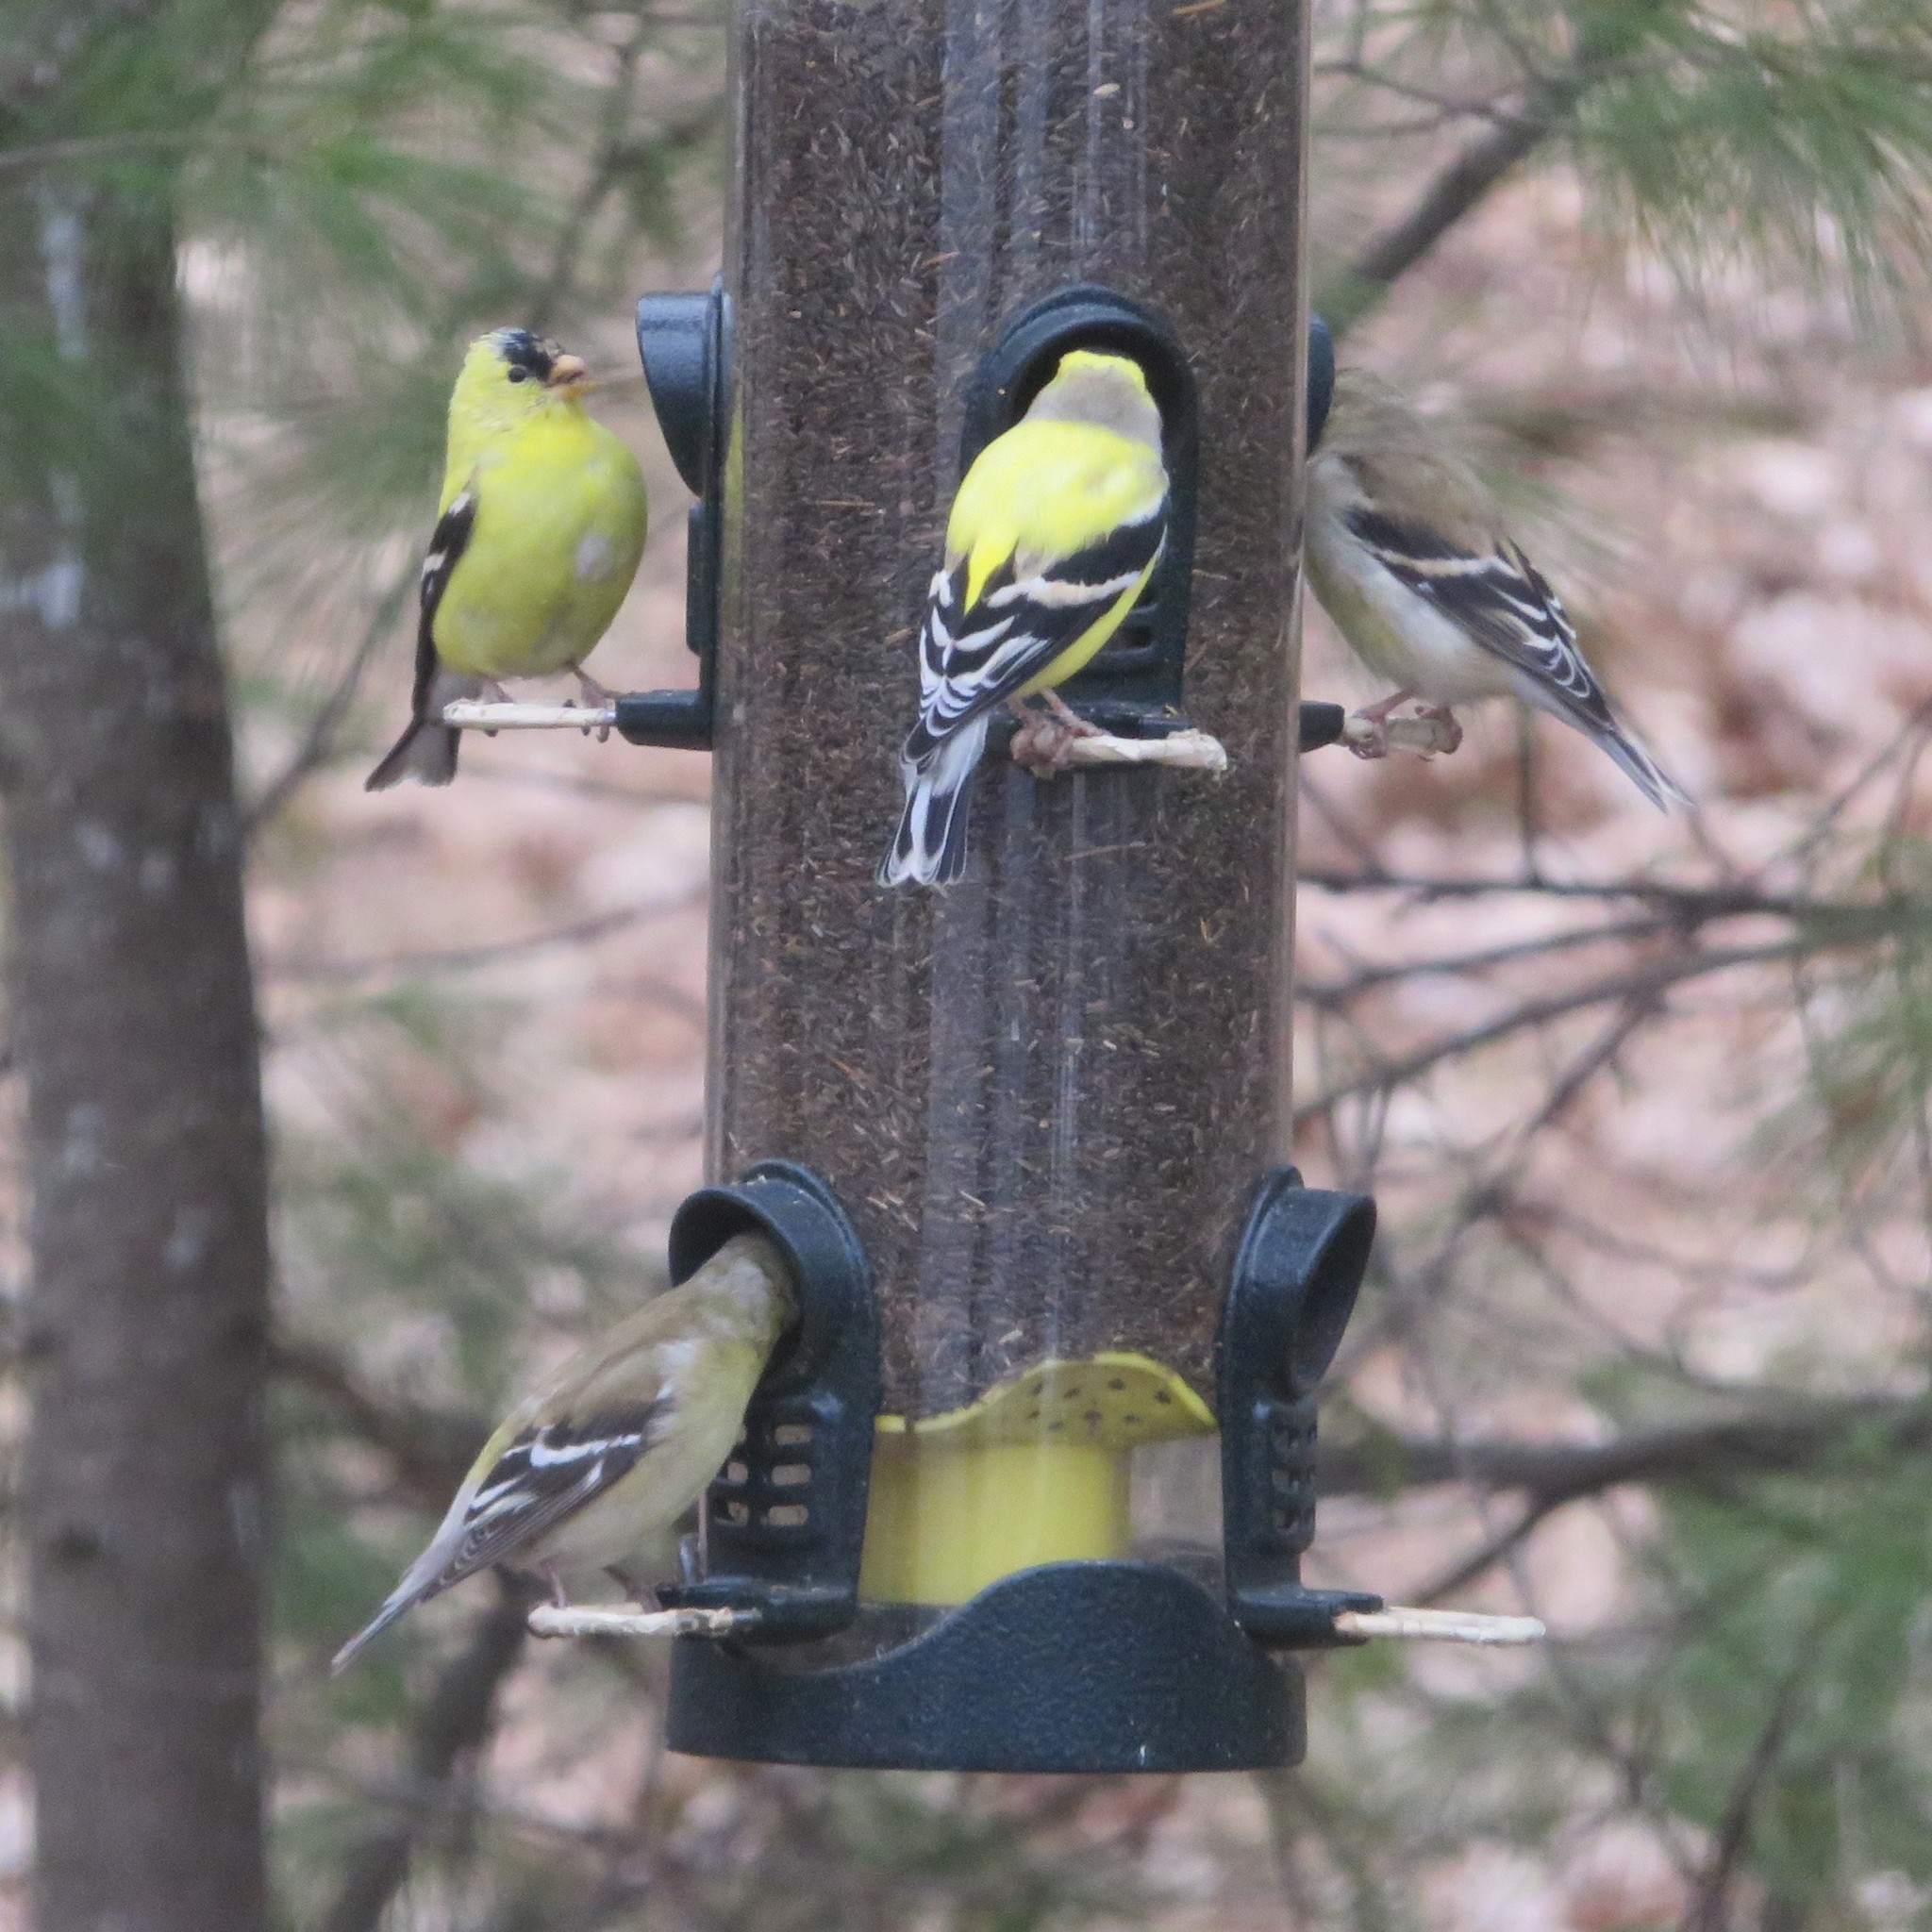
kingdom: Animalia
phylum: Chordata
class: Aves
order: Passeriformes
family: Fringillidae
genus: Spinus
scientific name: Spinus tristis
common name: American goldfinch
